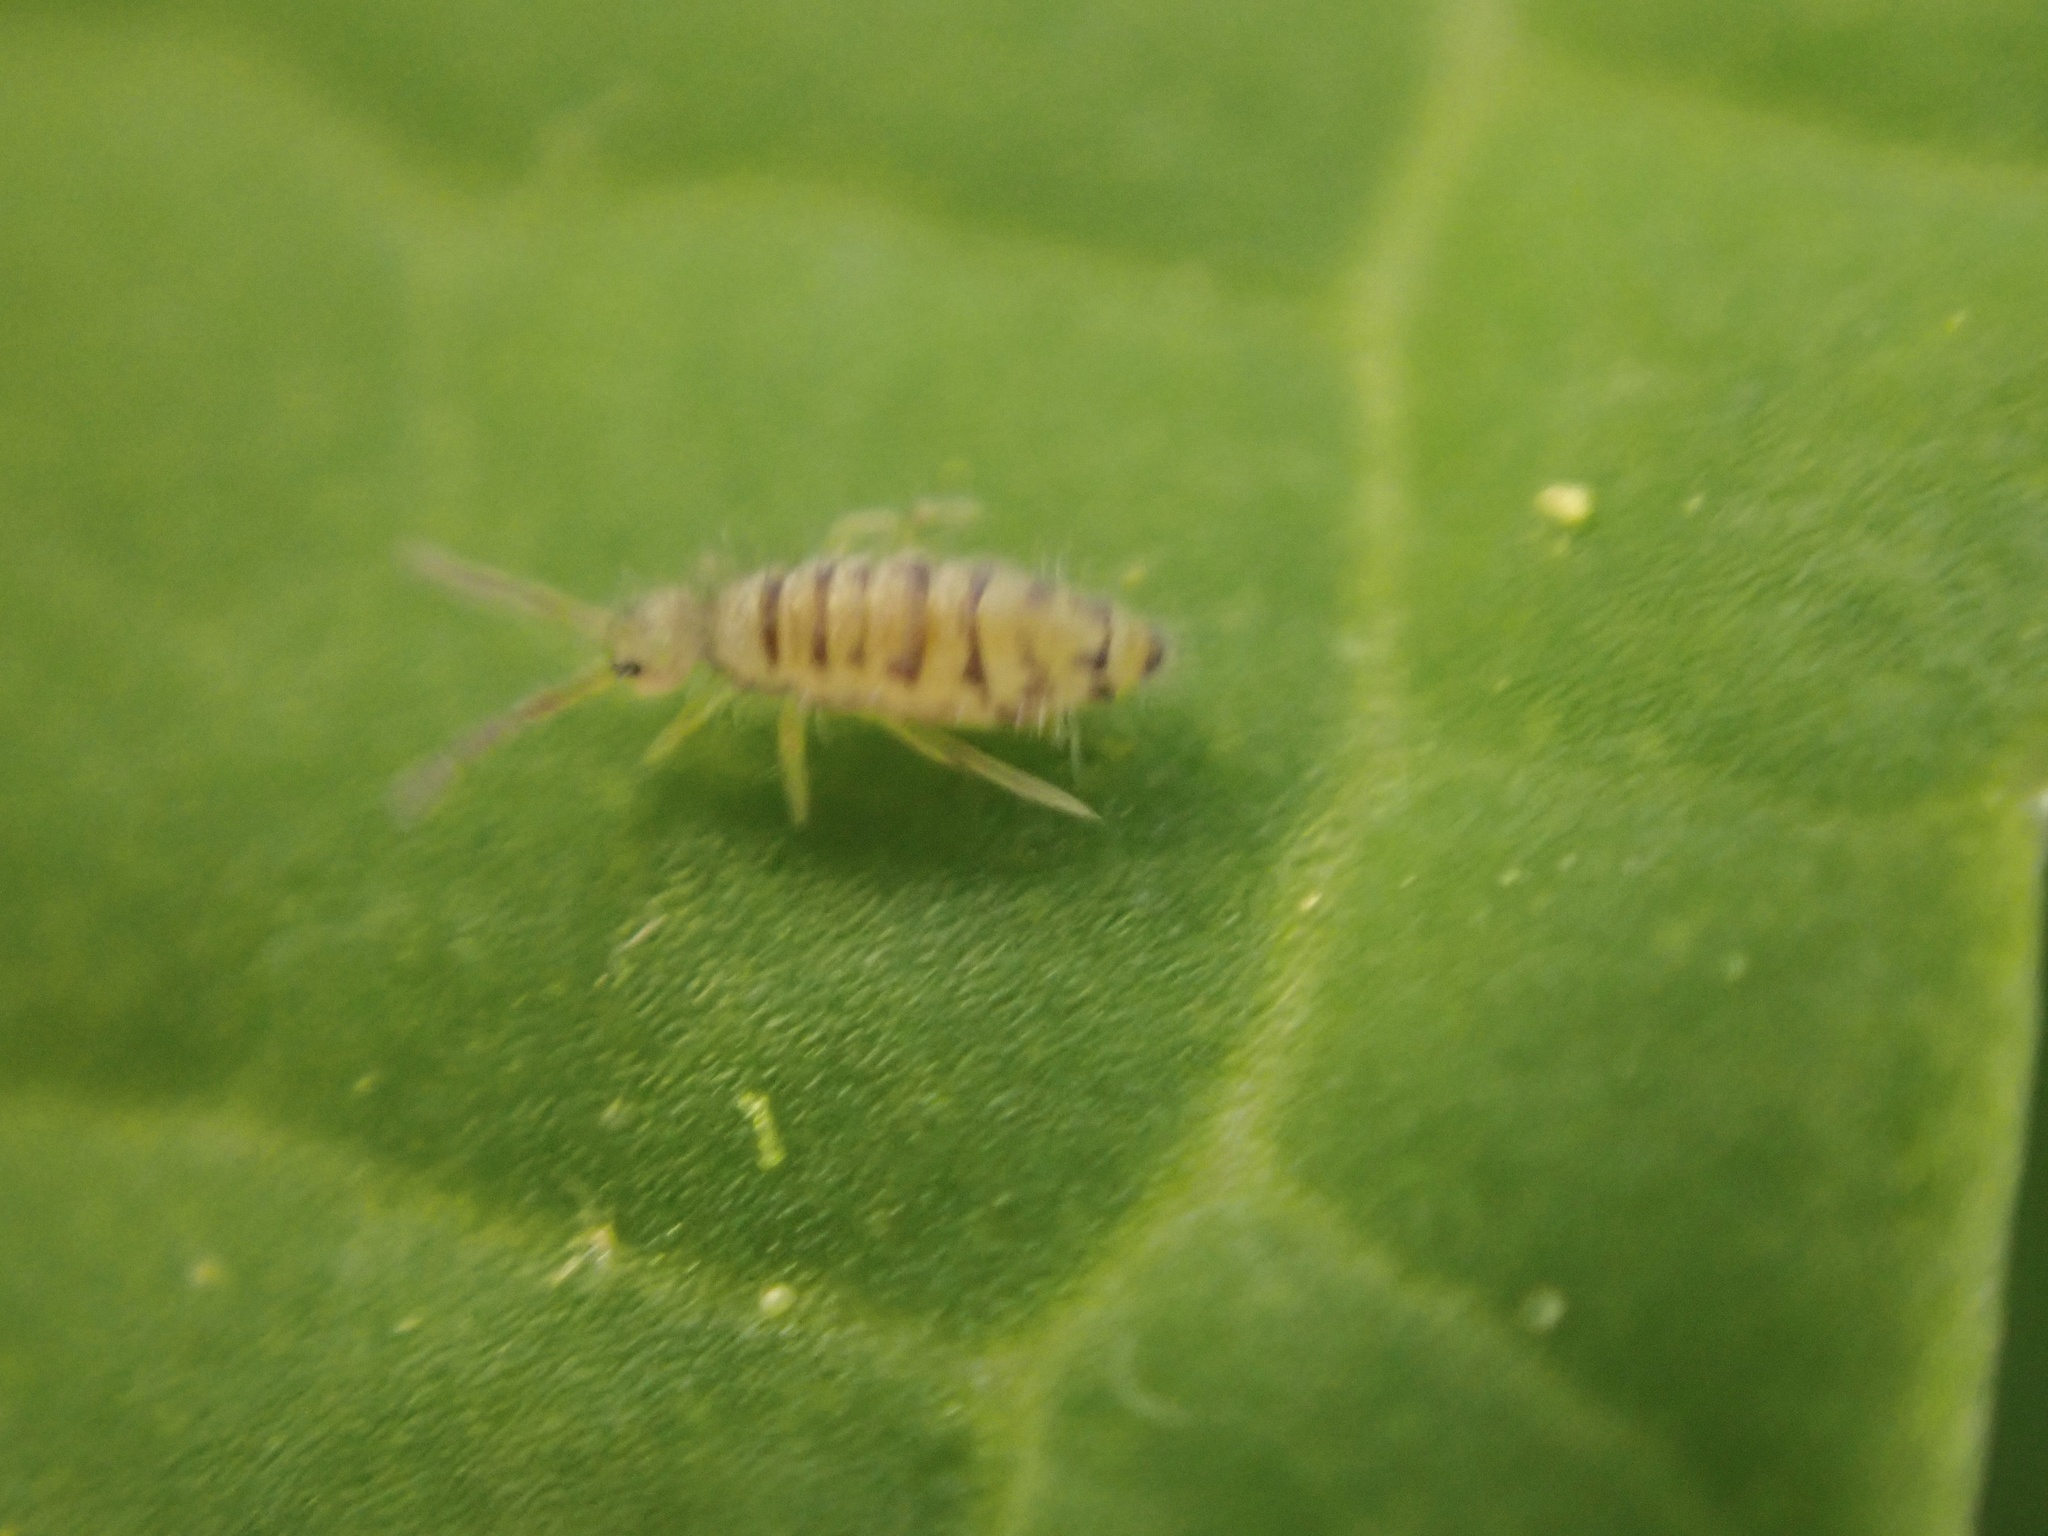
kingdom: Animalia
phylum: Arthropoda
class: Collembola
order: Entomobryomorpha
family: Entomobryidae
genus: Entomobrya
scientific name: Entomobrya multifasciata
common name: Springtail
